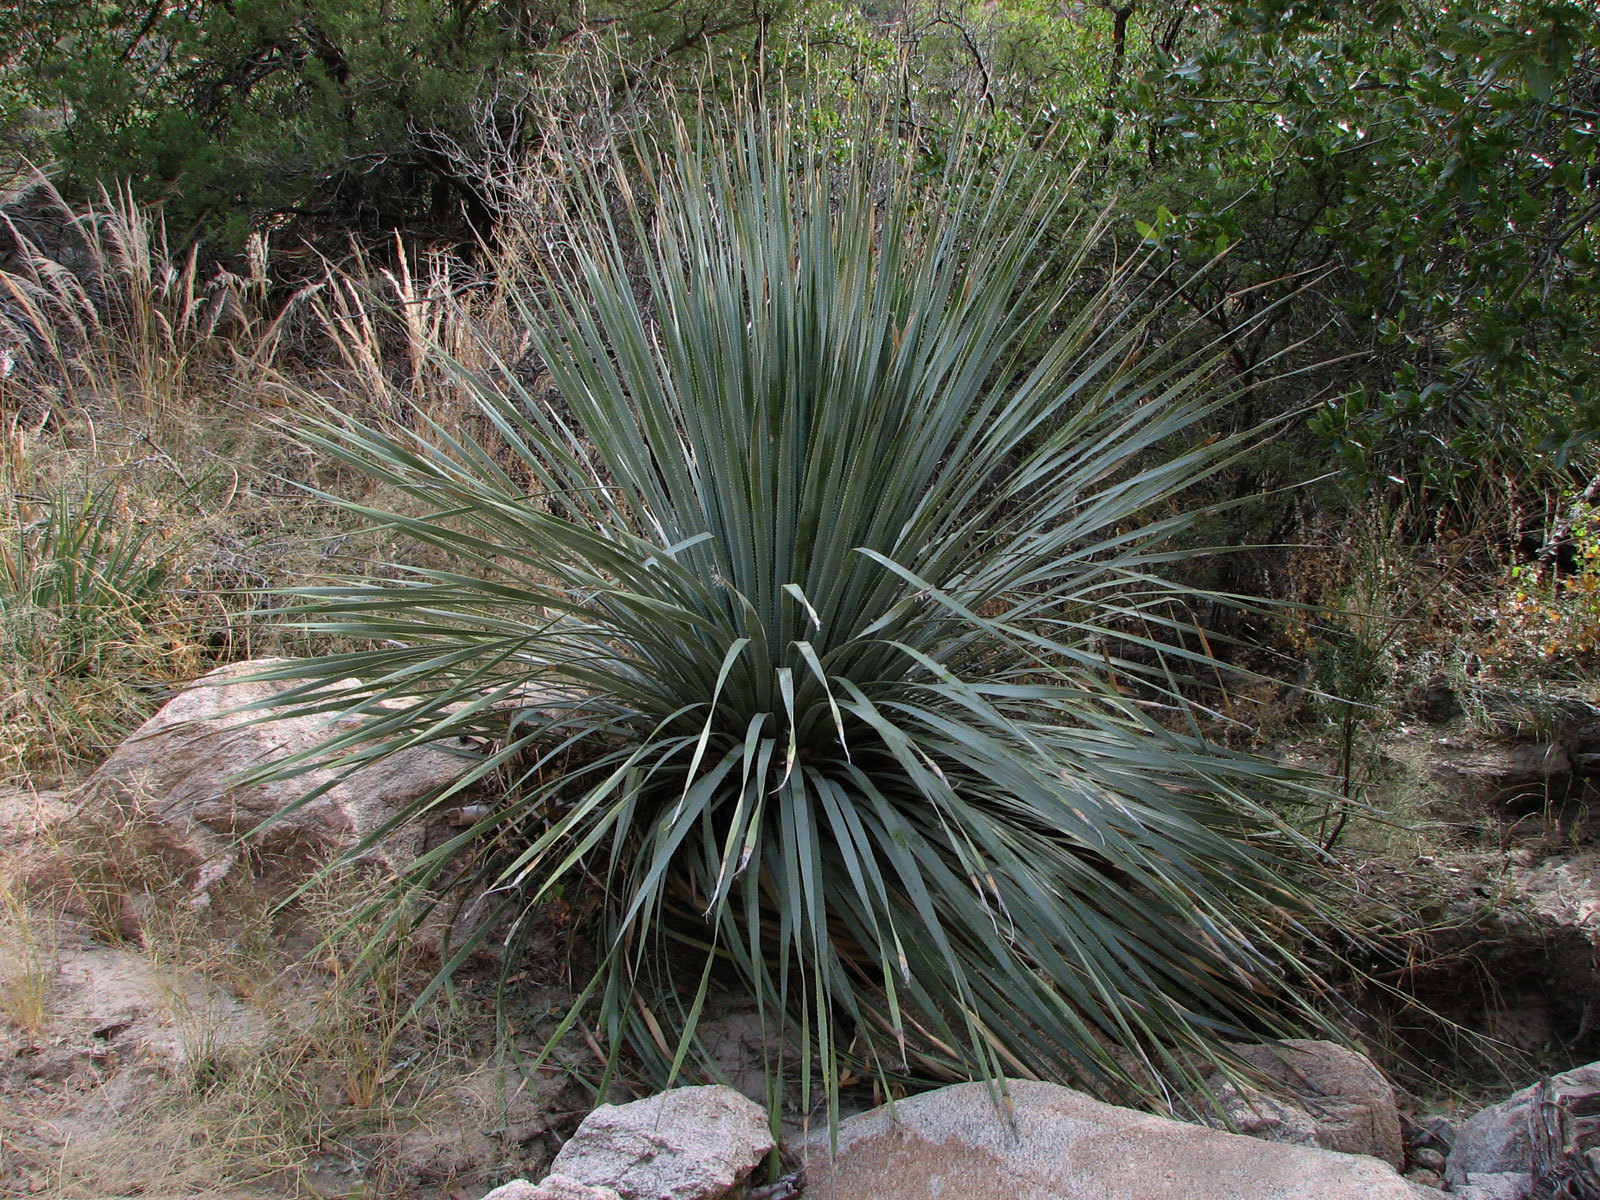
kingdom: Plantae
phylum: Tracheophyta
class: Liliopsida
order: Asparagales
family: Asparagaceae
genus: Dasylirion
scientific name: Dasylirion wheeleri
